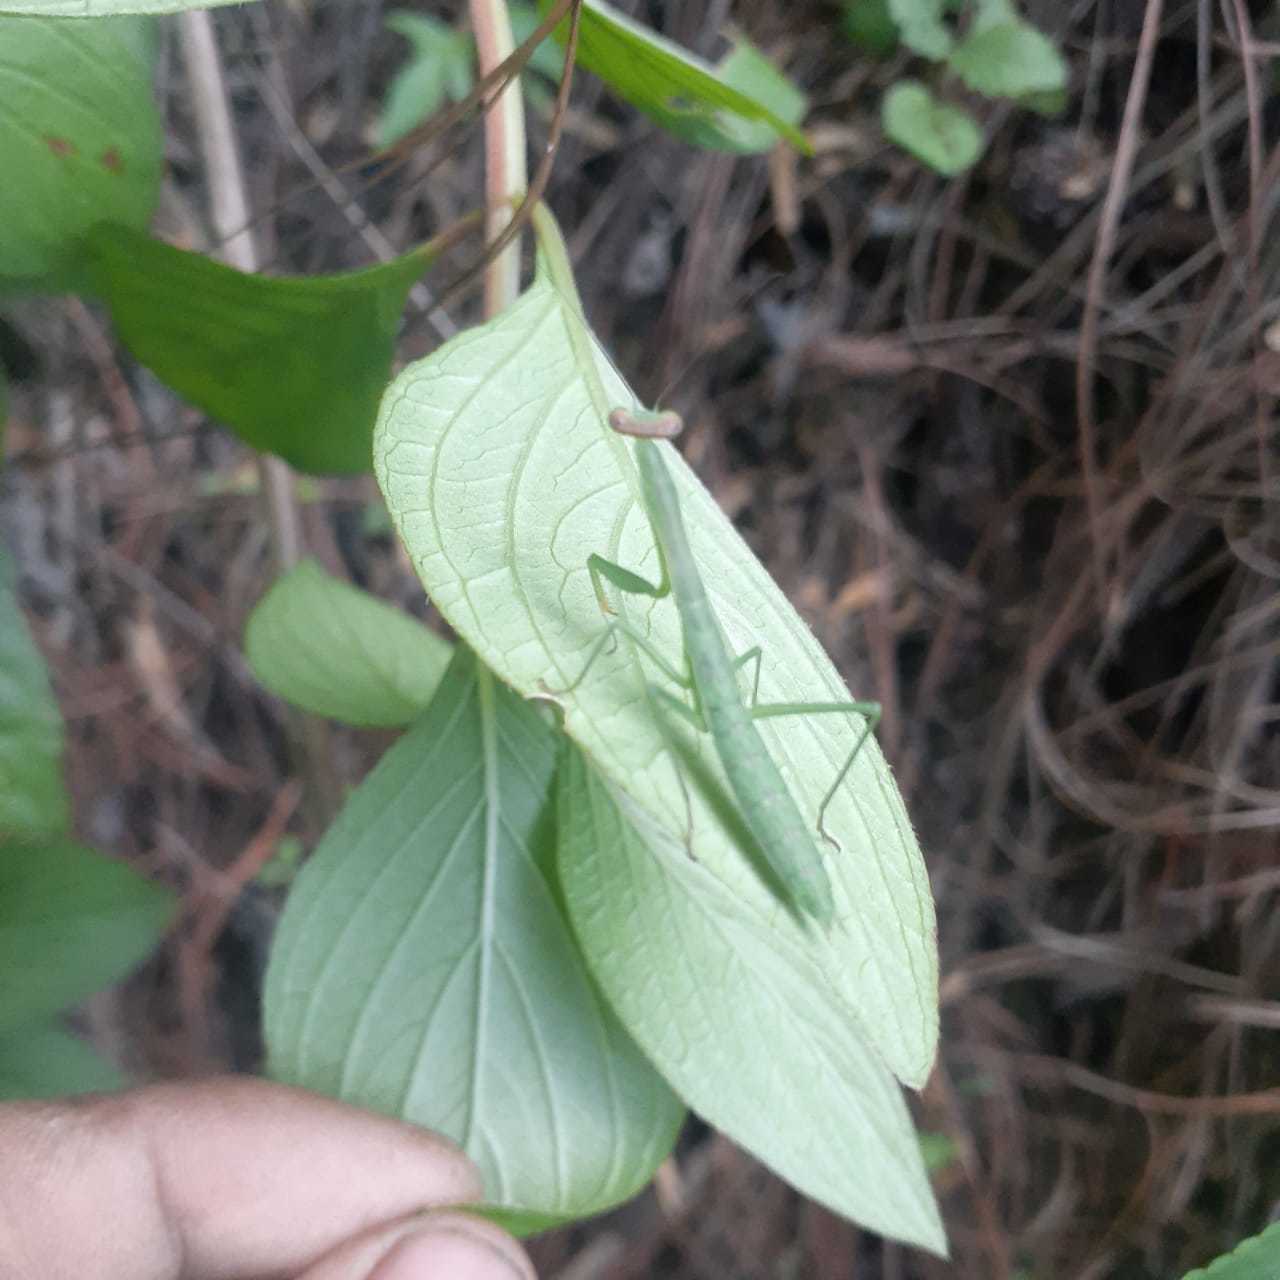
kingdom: Animalia
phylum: Arthropoda
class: Insecta
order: Mantodea
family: Mantidae
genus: Stagmomantis
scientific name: Stagmomantis nahua
